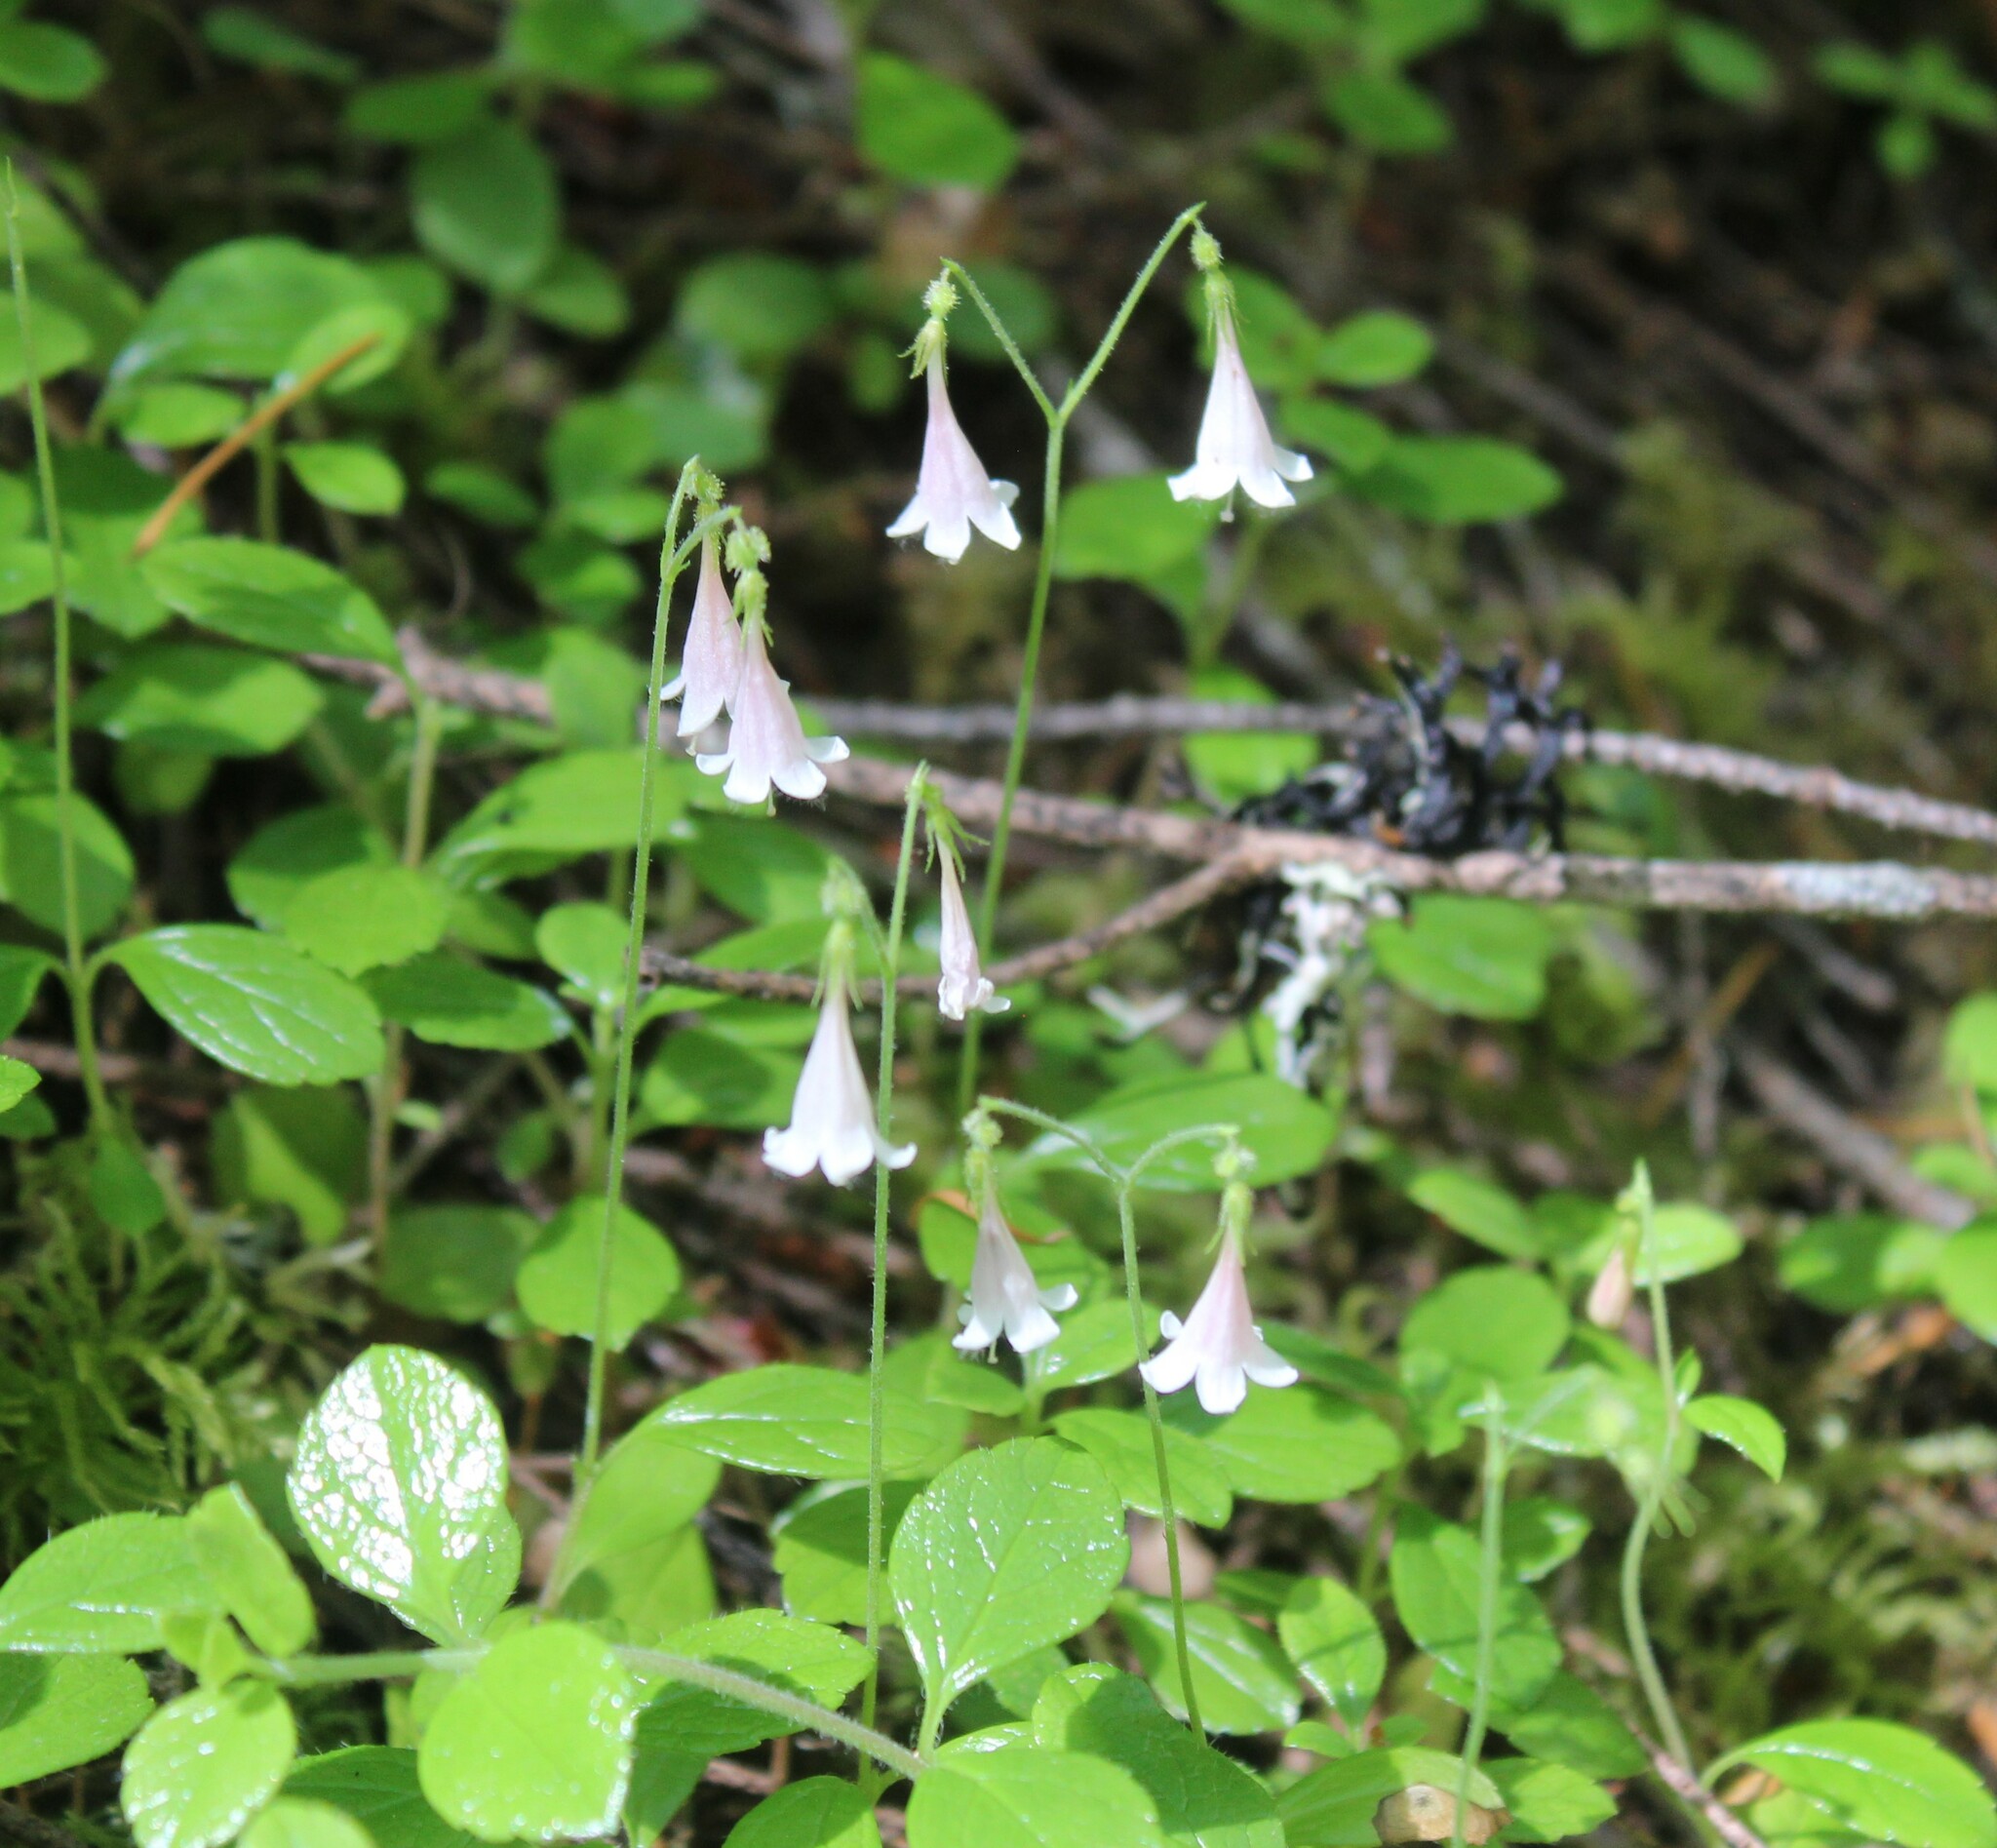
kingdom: Plantae
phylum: Tracheophyta
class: Magnoliopsida
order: Dipsacales
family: Caprifoliaceae
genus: Linnaea
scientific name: Linnaea borealis
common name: Twinflower
